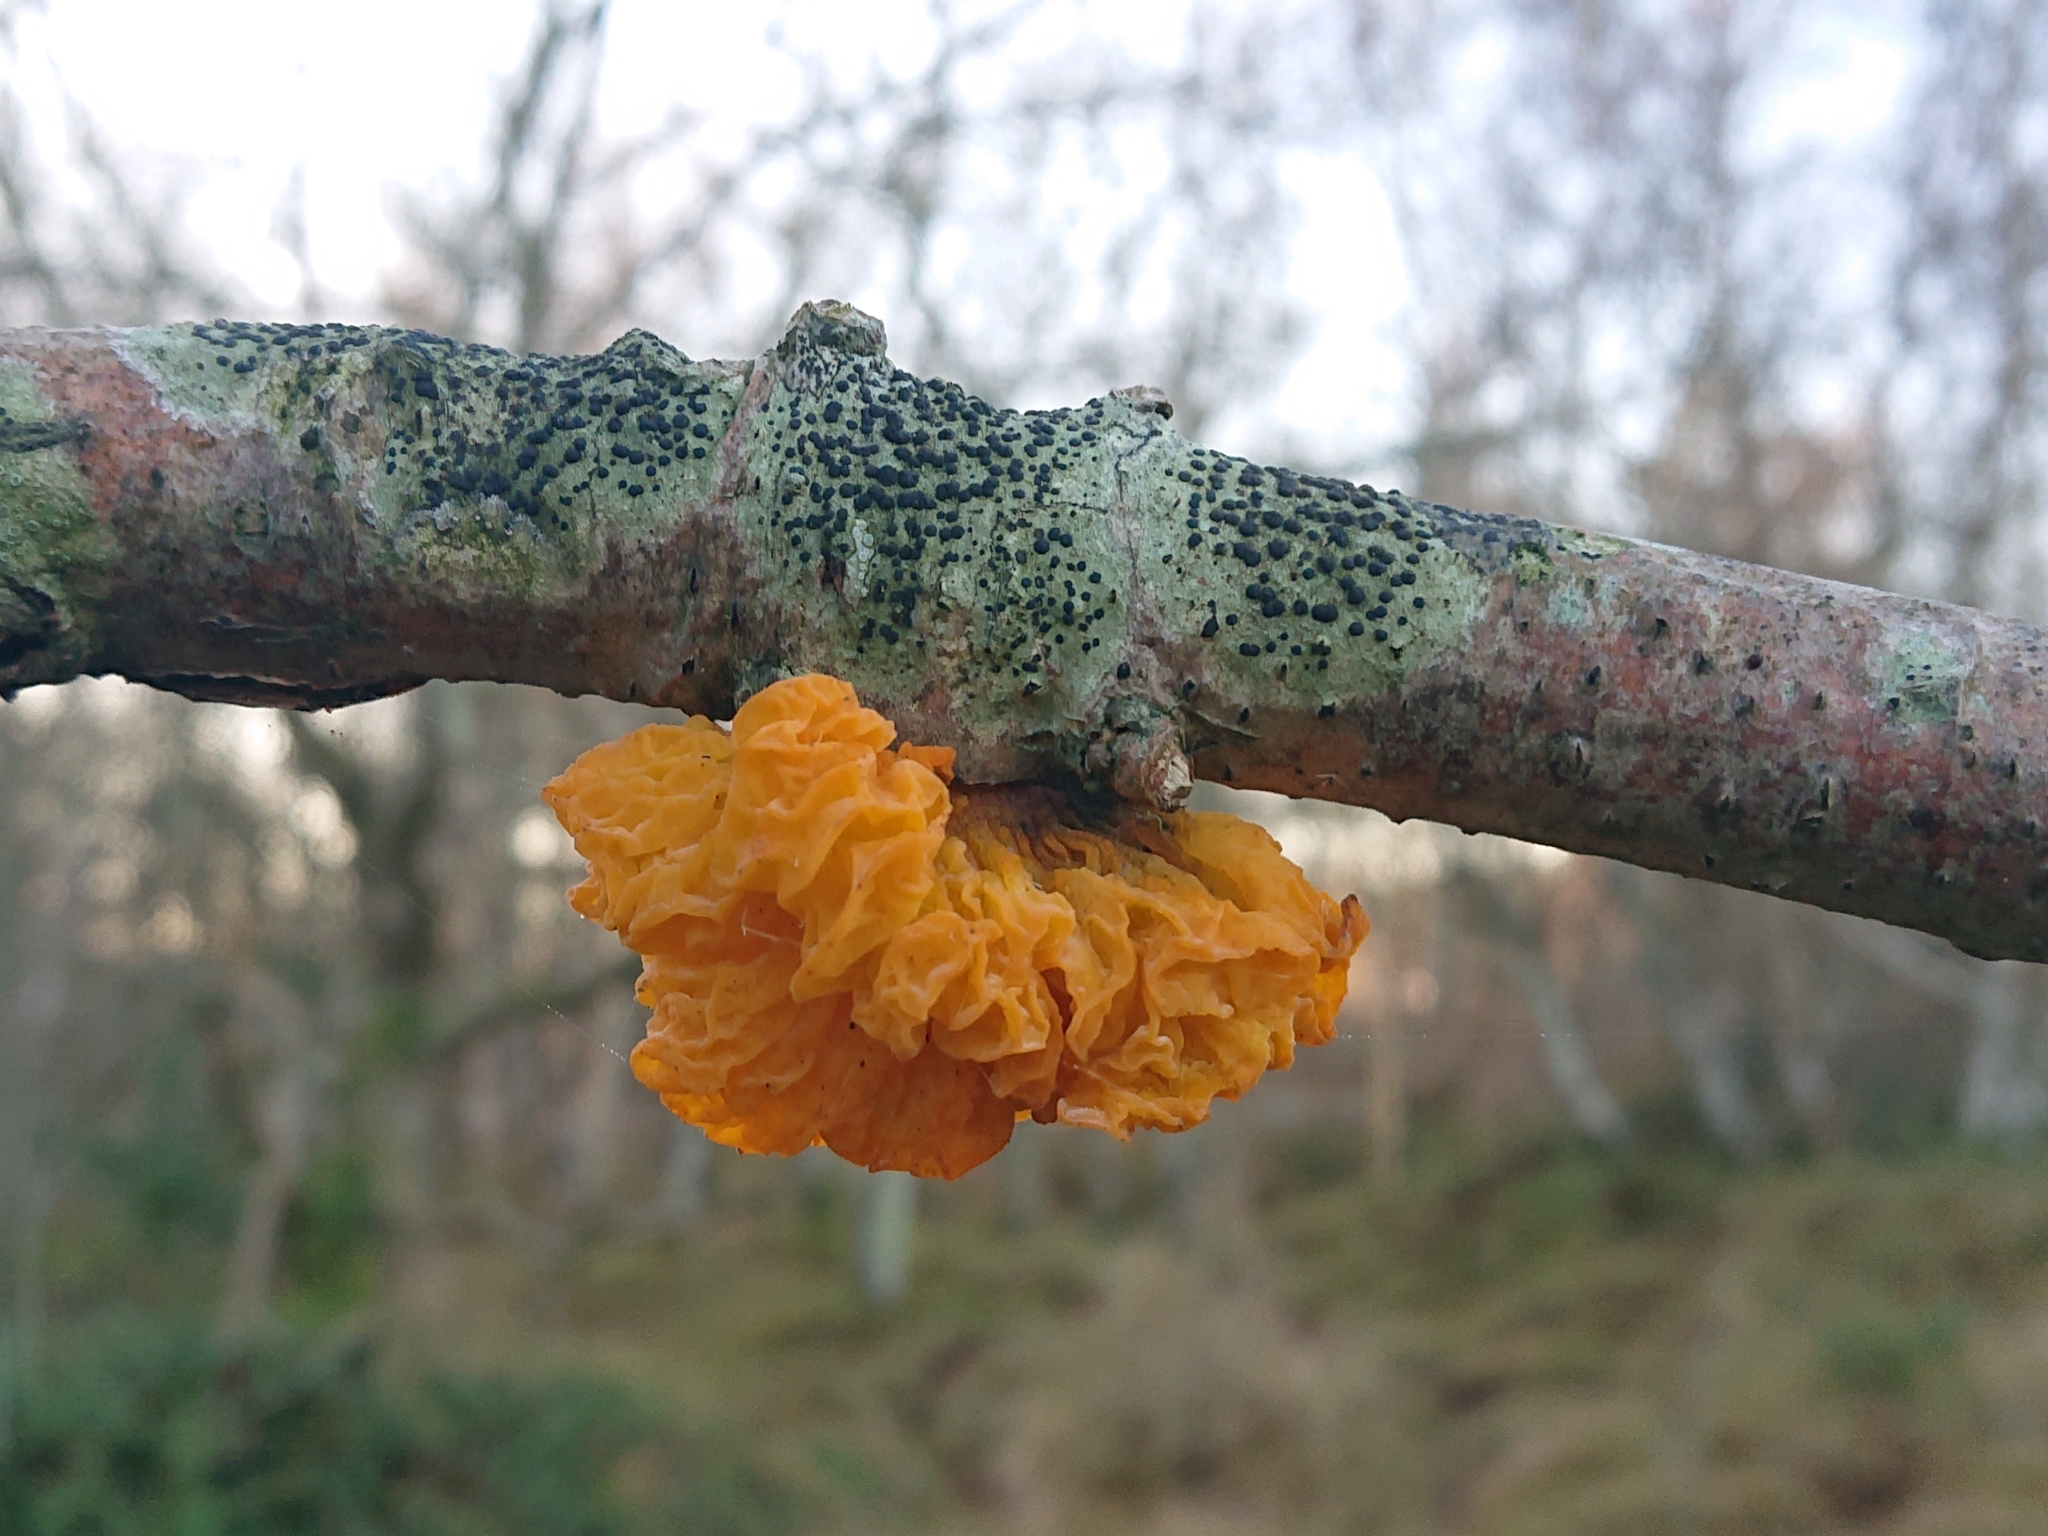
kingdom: Fungi
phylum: Basidiomycota
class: Tremellomycetes
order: Tremellales
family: Tremellaceae
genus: Tremella
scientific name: Tremella mesenterica
